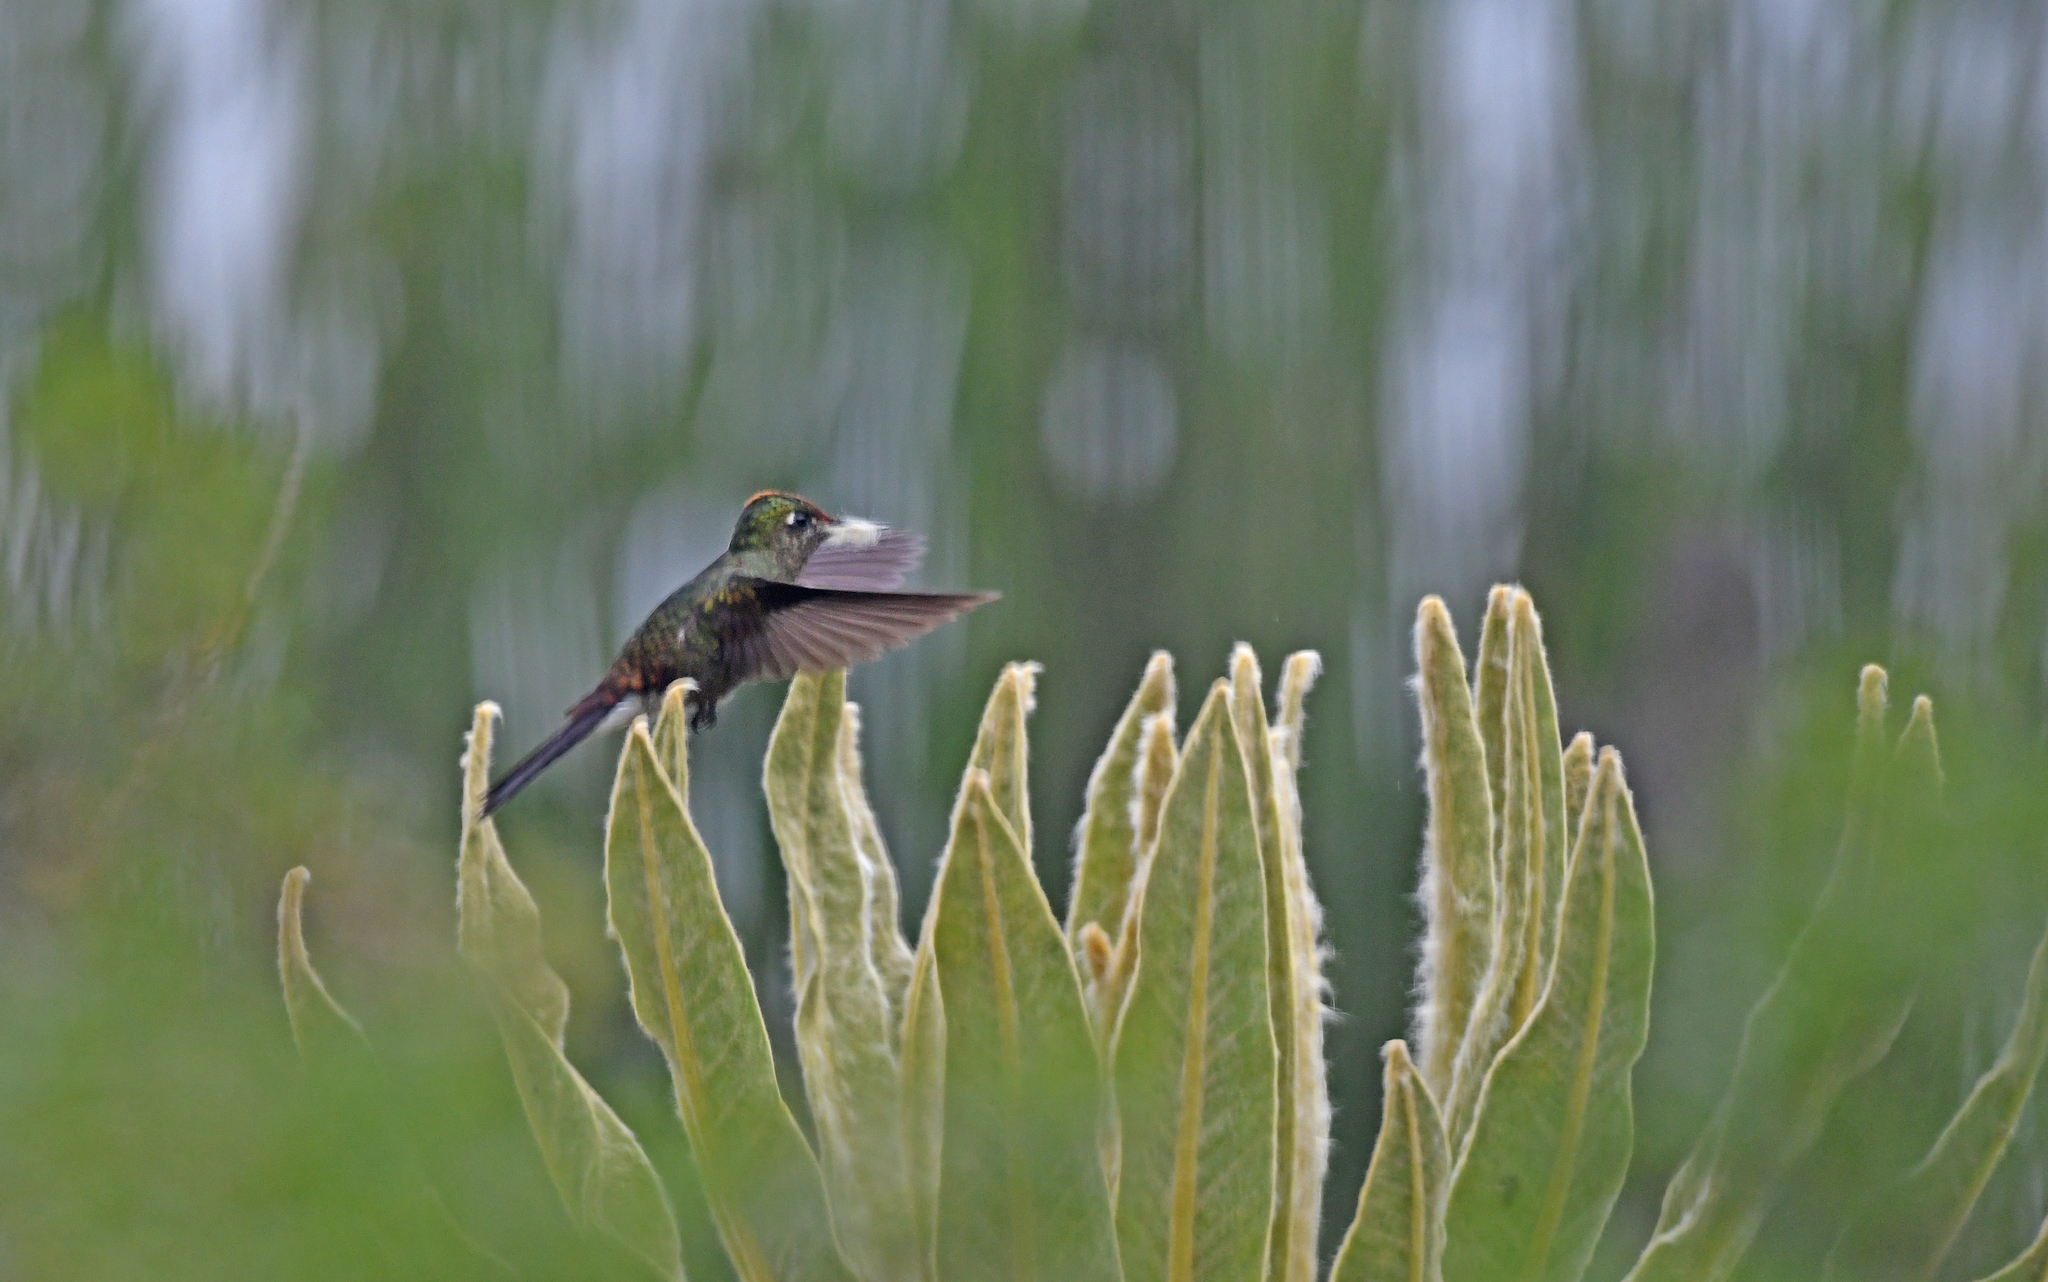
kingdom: Animalia
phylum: Chordata
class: Aves
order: Apodiformes
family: Trochilidae
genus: Chalcostigma
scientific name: Chalcostigma herrani
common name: Rainbow-bearded thornbill
